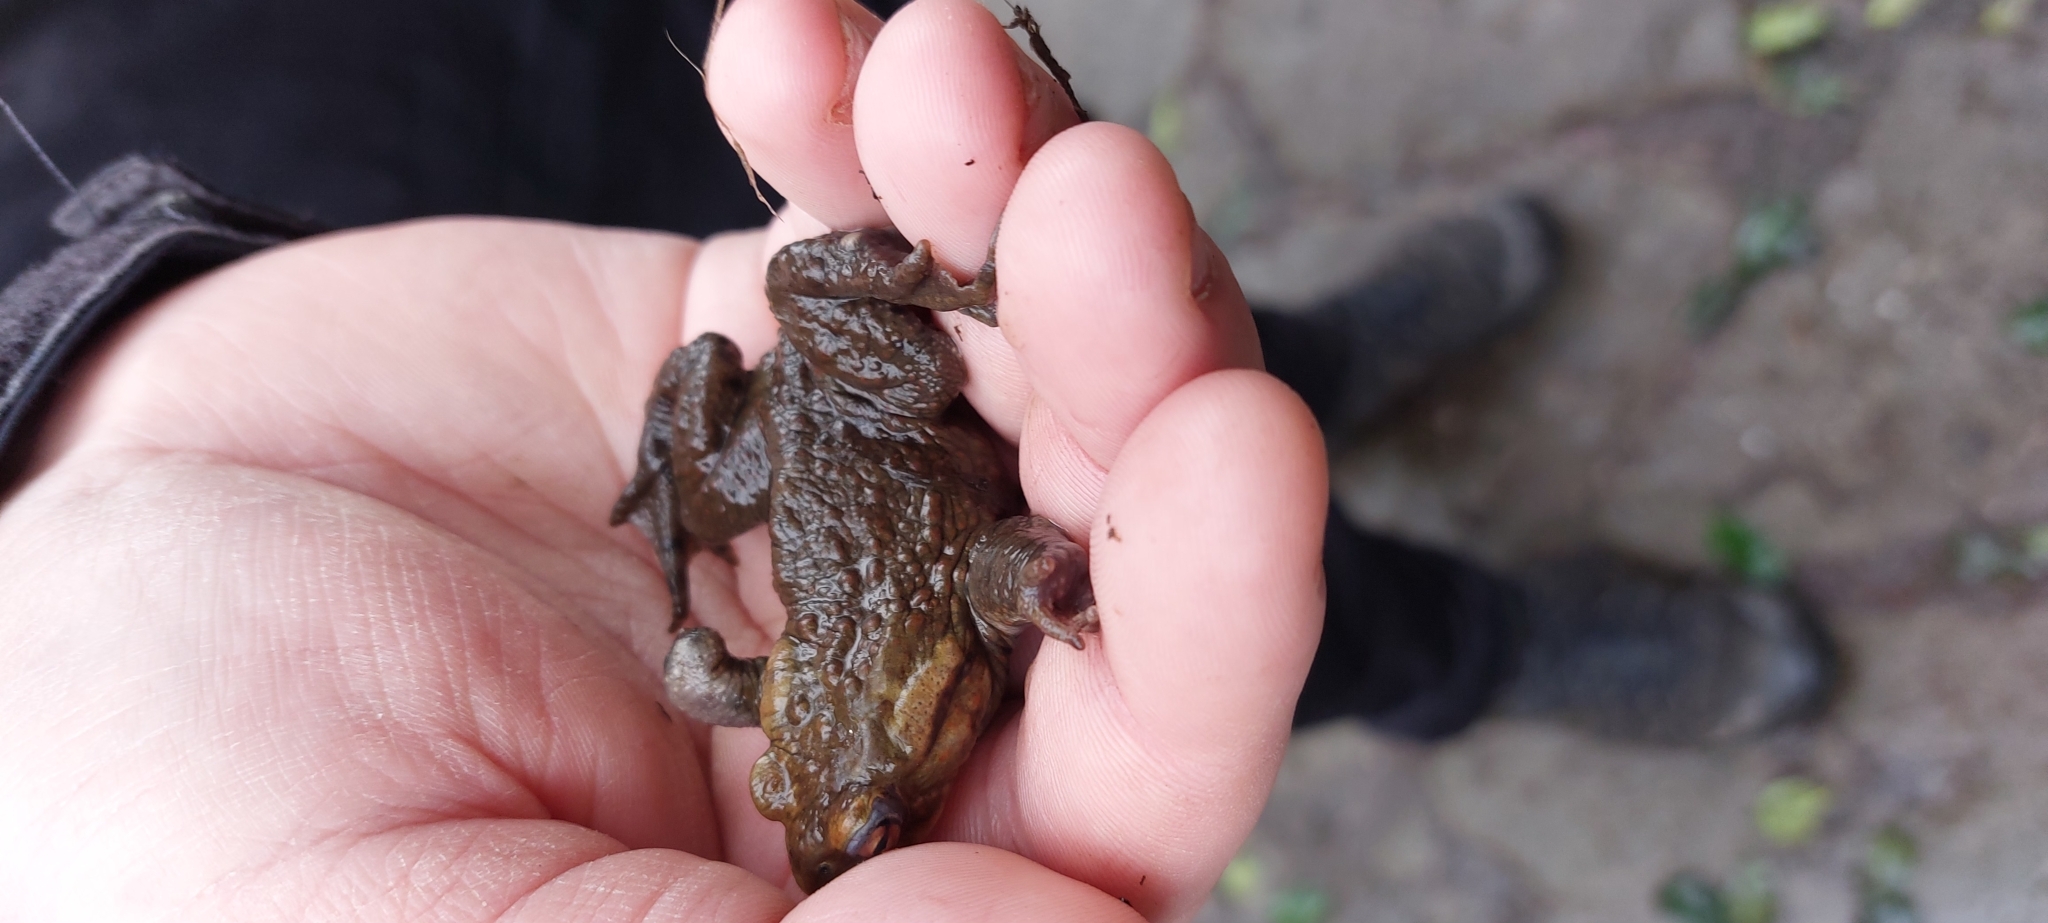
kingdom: Animalia
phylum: Chordata
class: Amphibia
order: Anura
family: Bufonidae
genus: Bufo
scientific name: Bufo bufo
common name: Common toad
